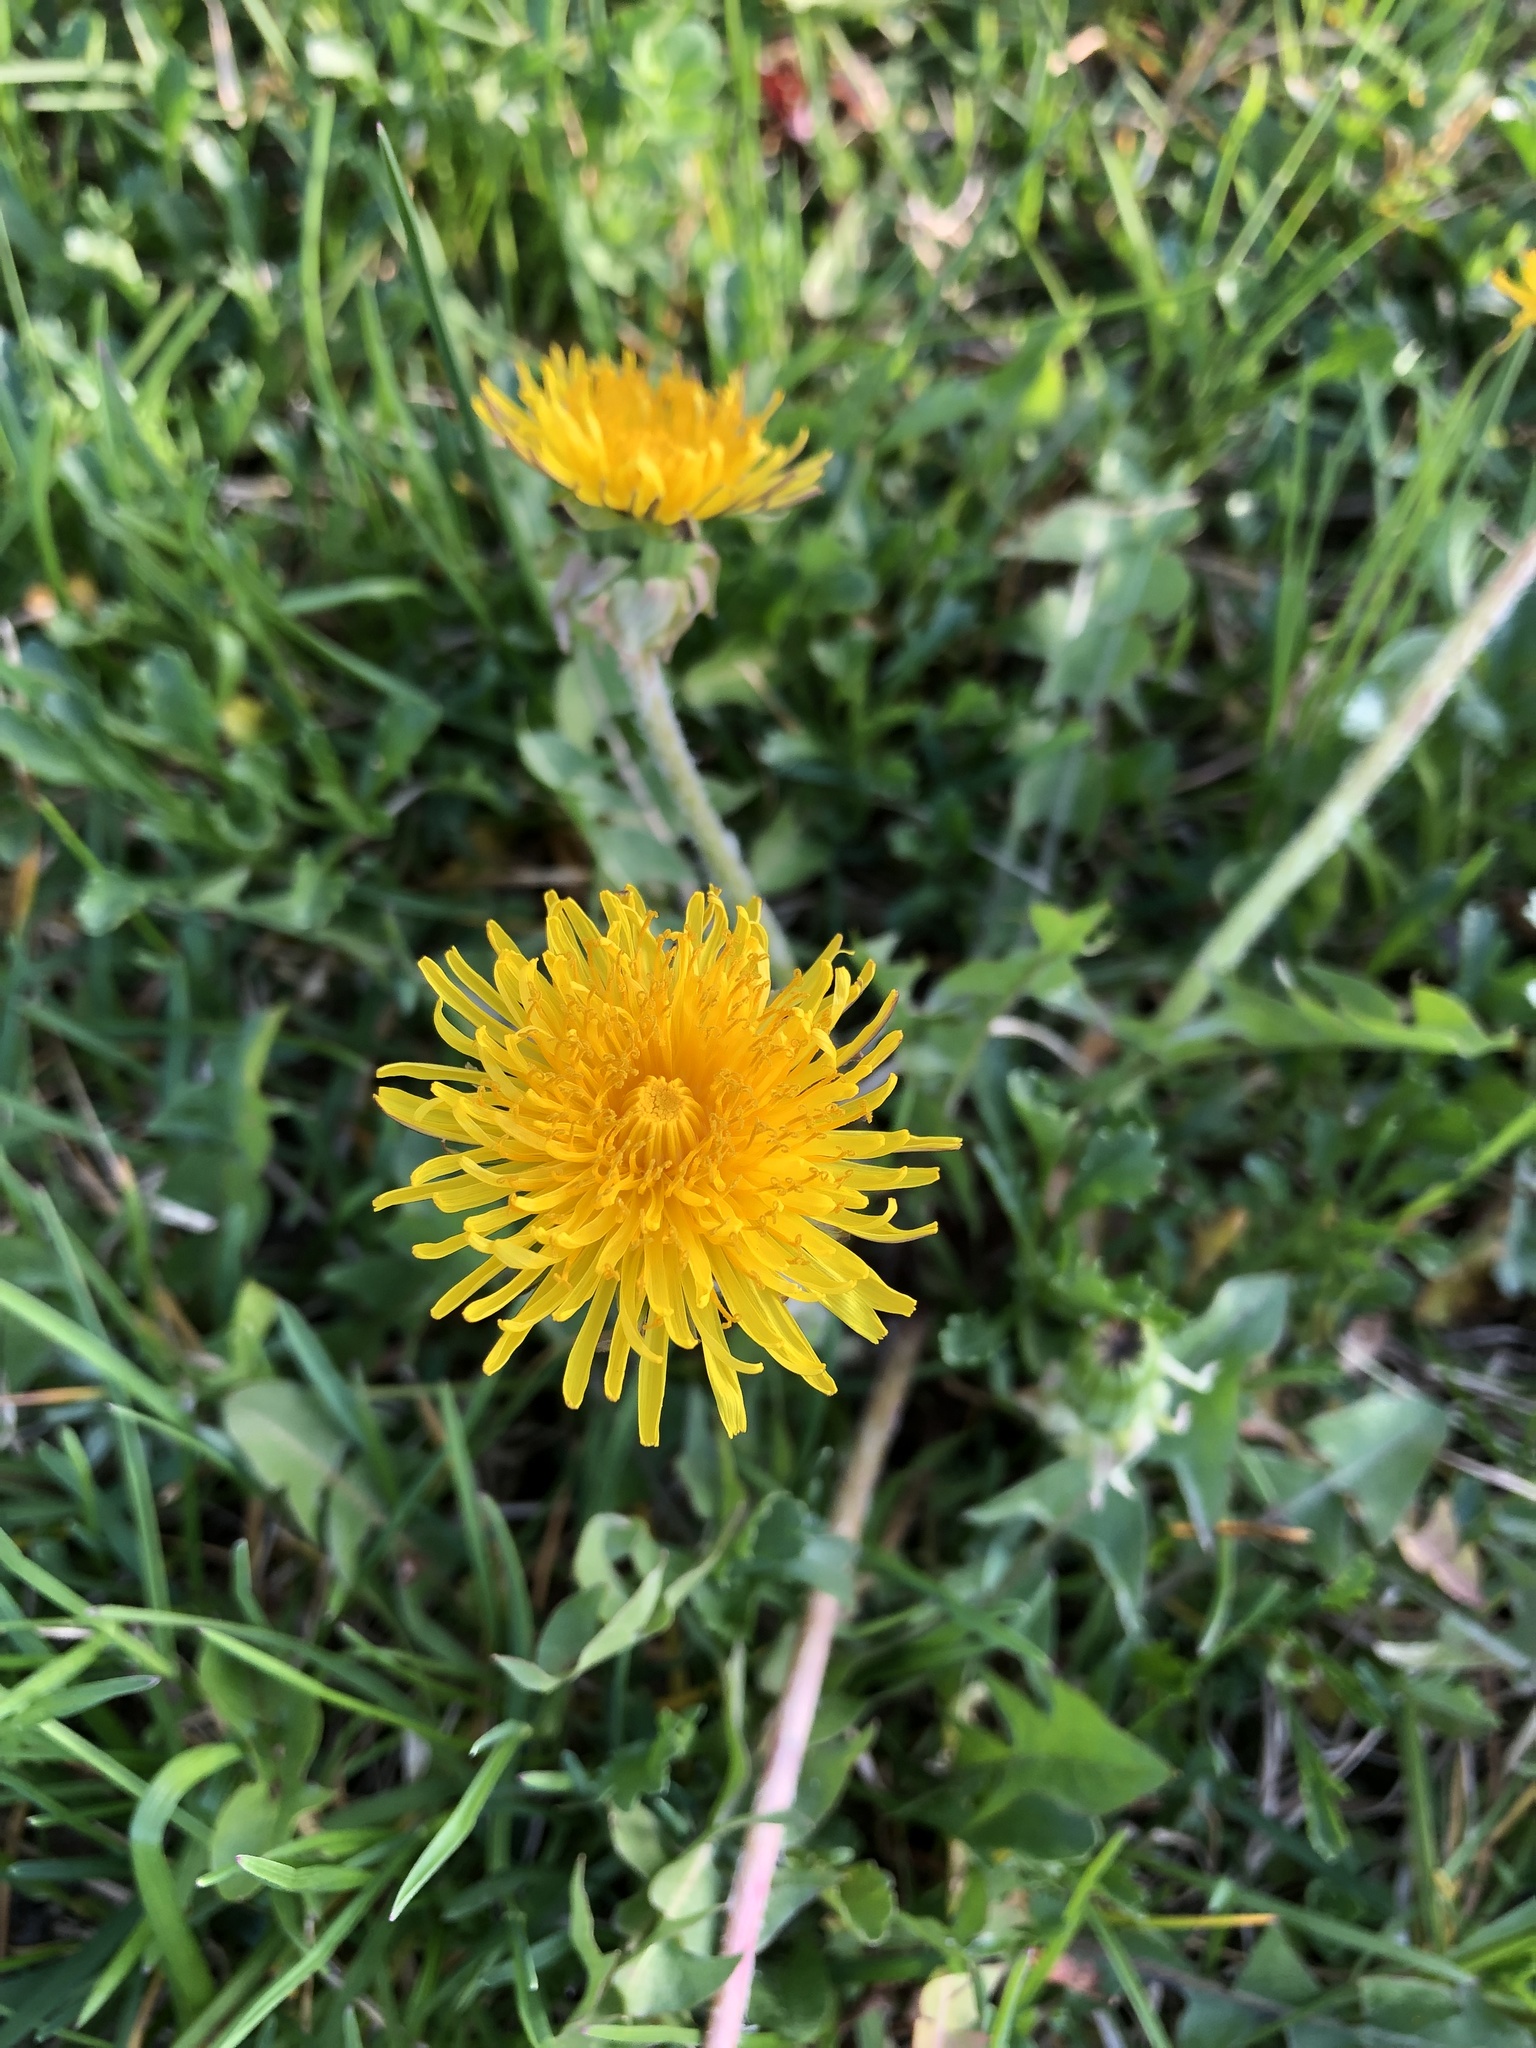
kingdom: Plantae
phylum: Tracheophyta
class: Magnoliopsida
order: Asterales
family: Asteraceae
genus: Taraxacum
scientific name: Taraxacum officinale
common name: Common dandelion
